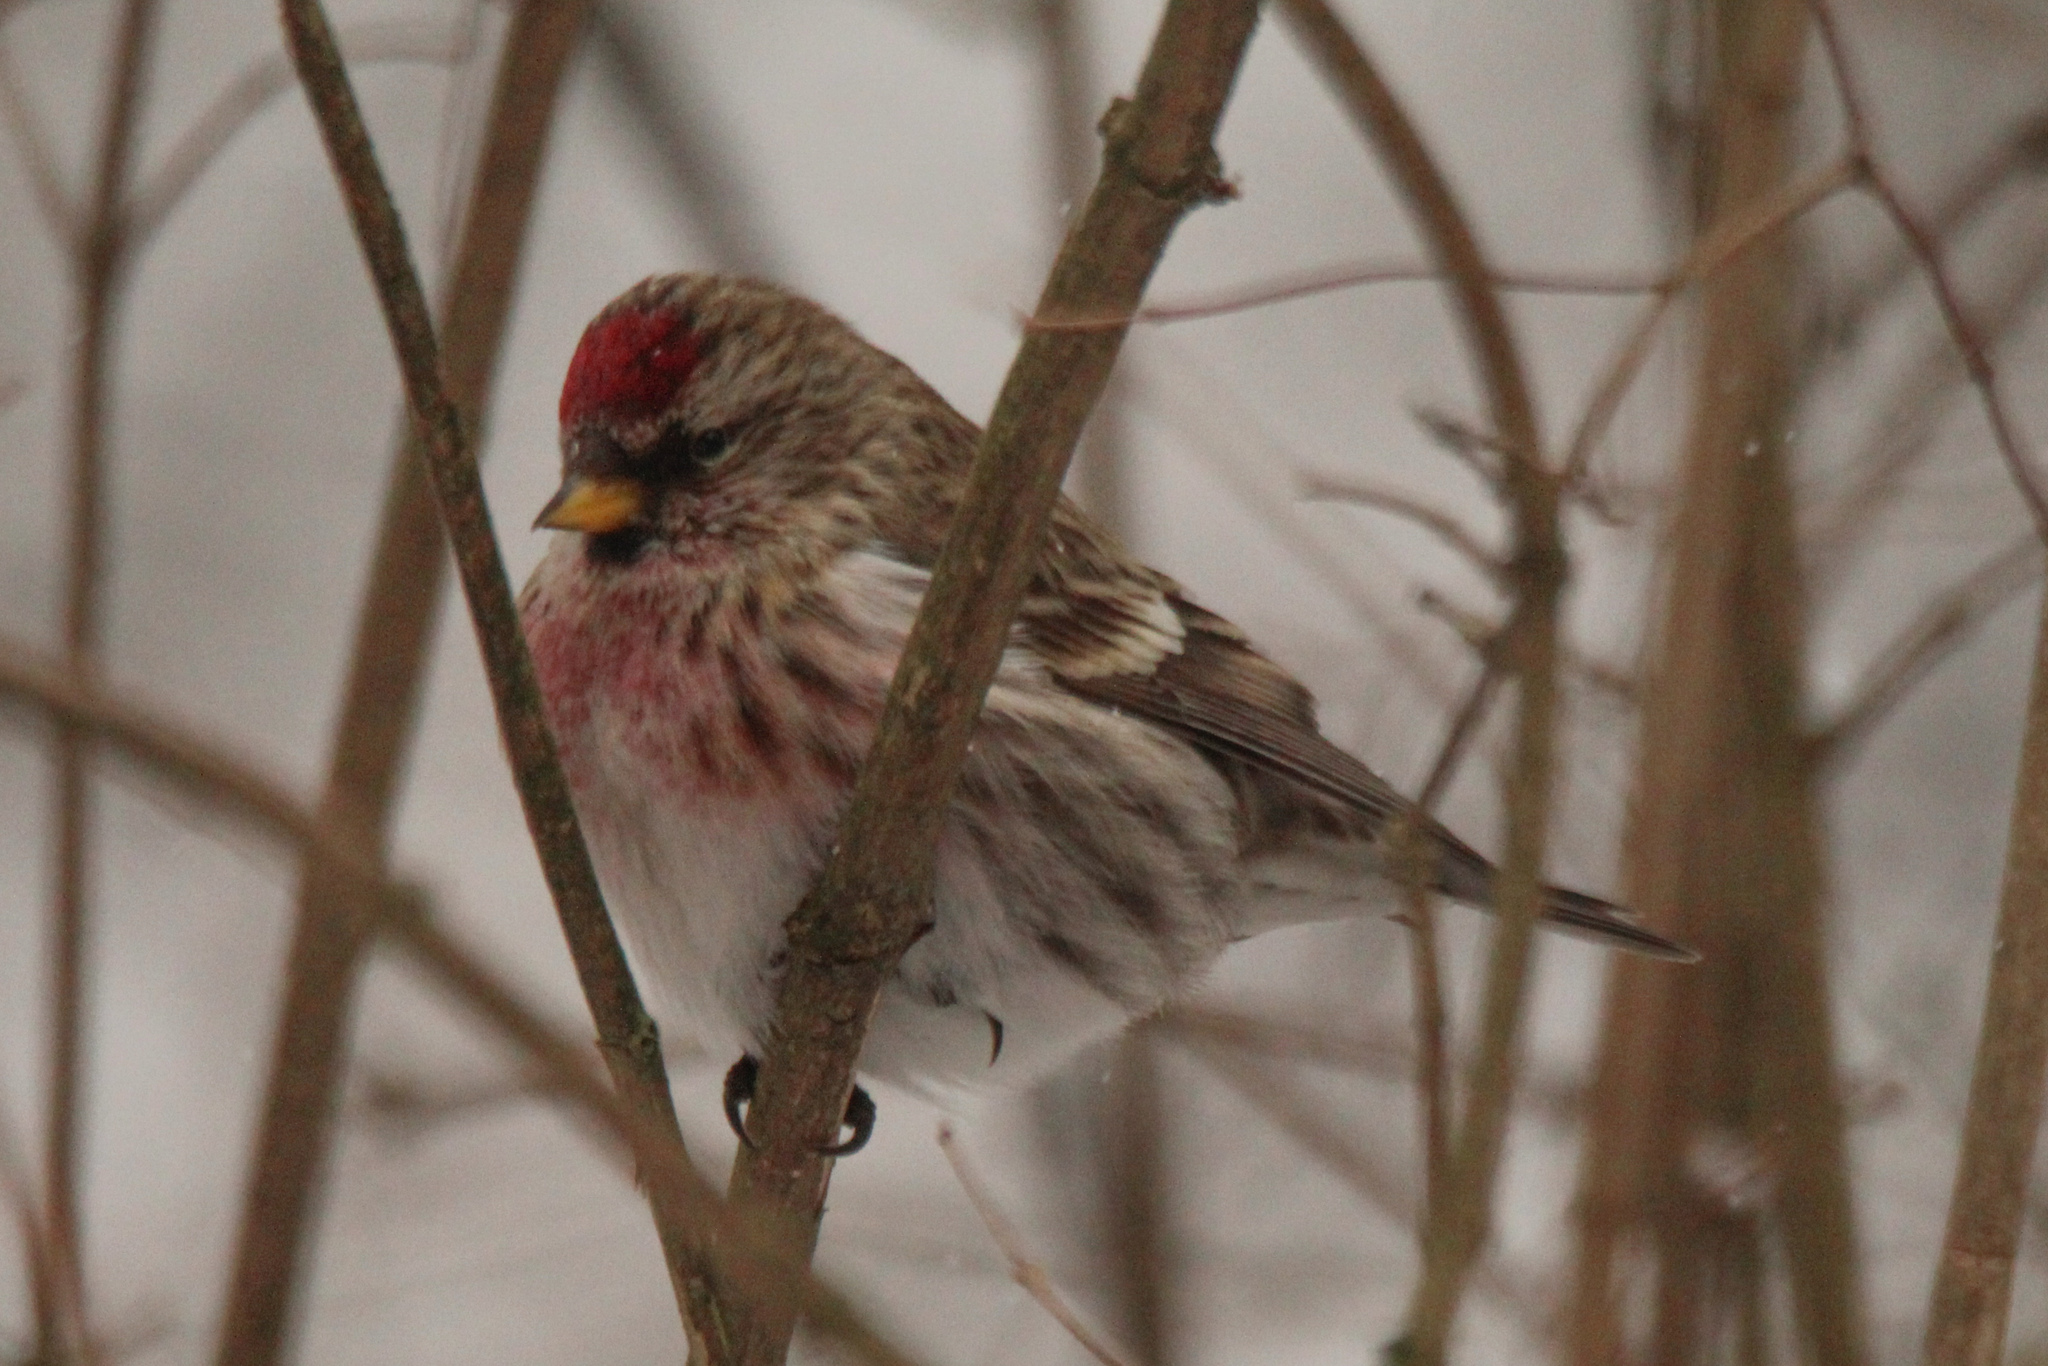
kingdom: Animalia
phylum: Chordata
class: Aves
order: Passeriformes
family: Fringillidae
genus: Acanthis
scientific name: Acanthis flammea
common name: Common redpoll
